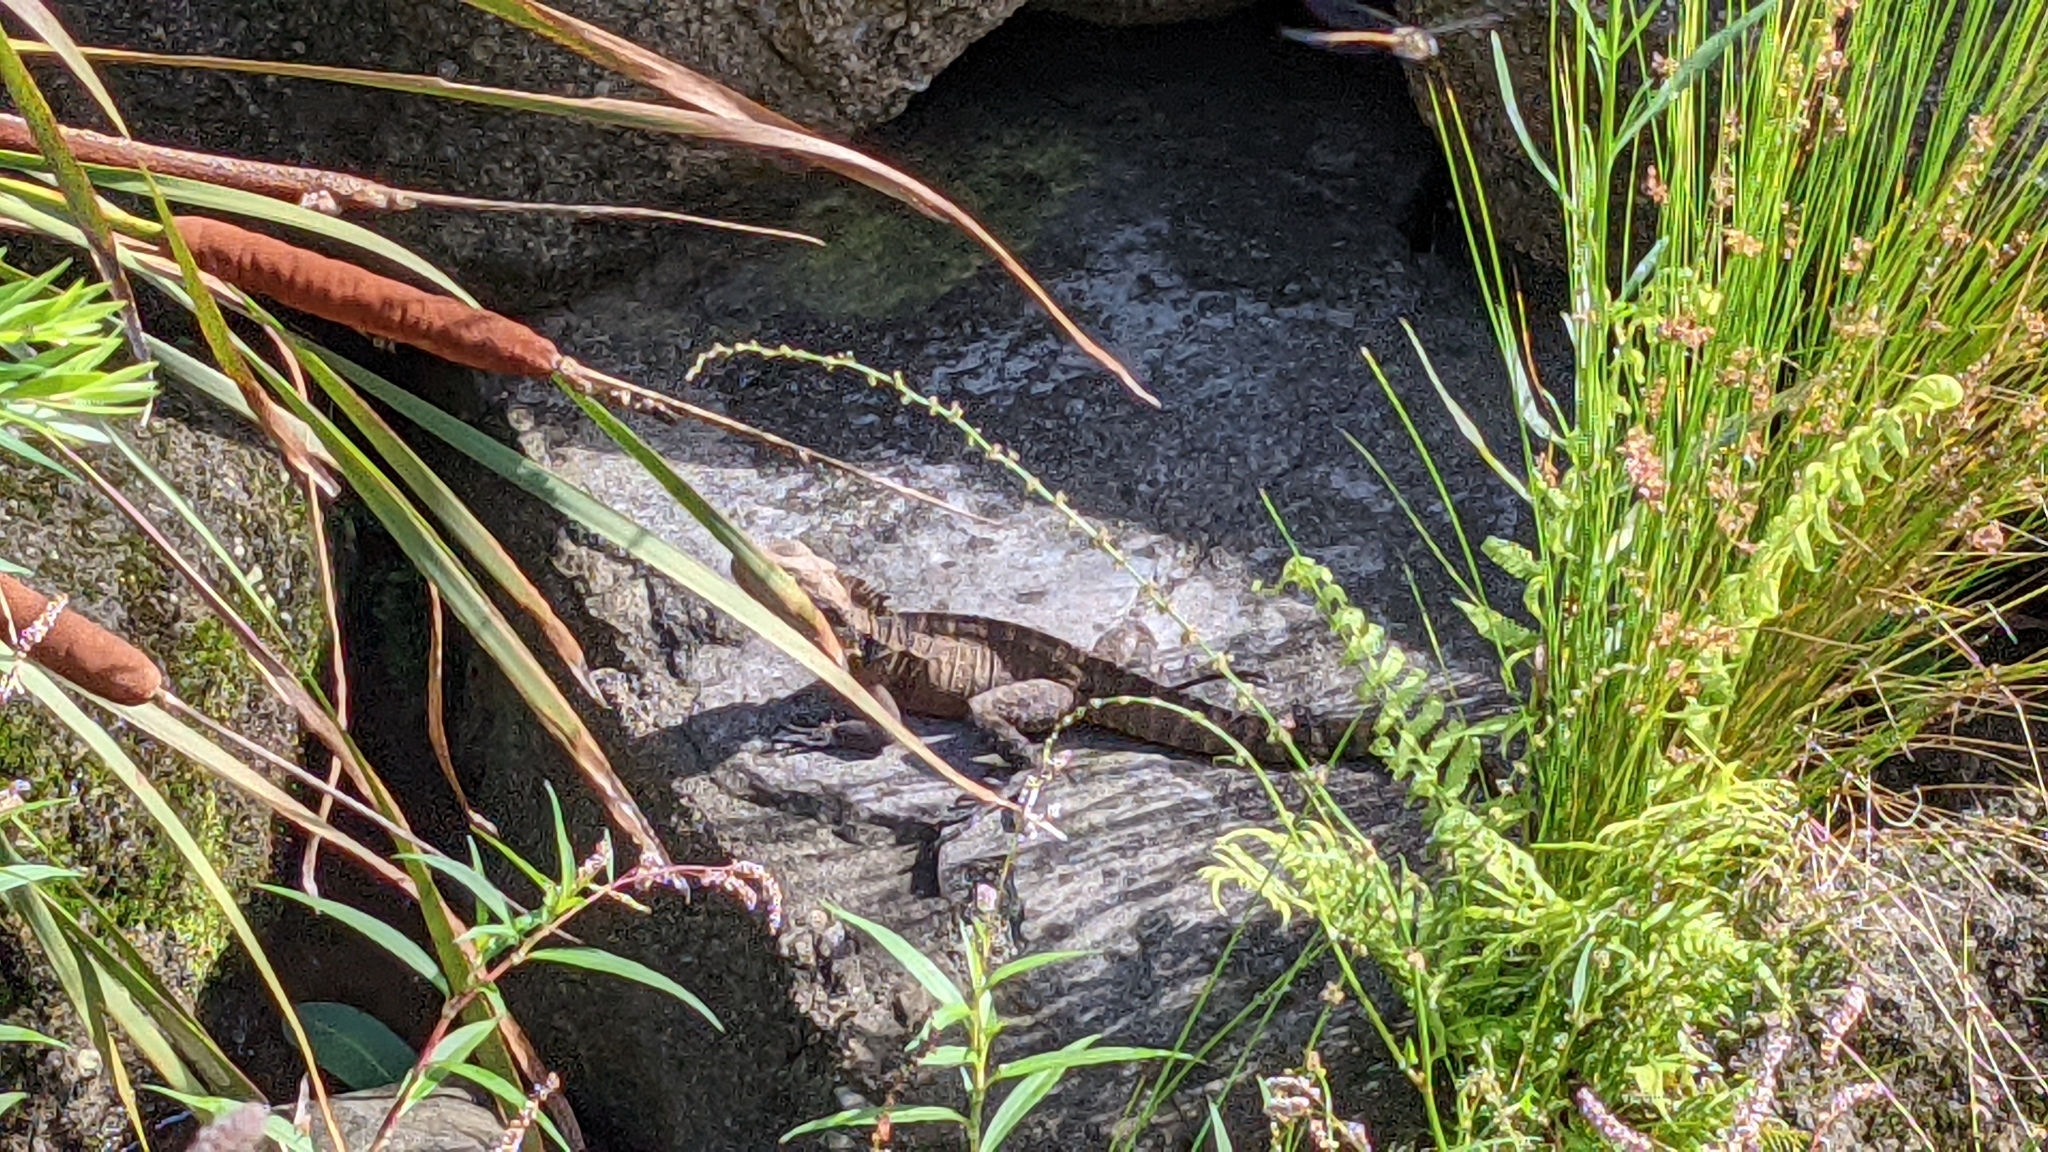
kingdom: Animalia
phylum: Chordata
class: Squamata
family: Agamidae
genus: Intellagama
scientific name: Intellagama lesueurii
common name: Eastern water dragon
